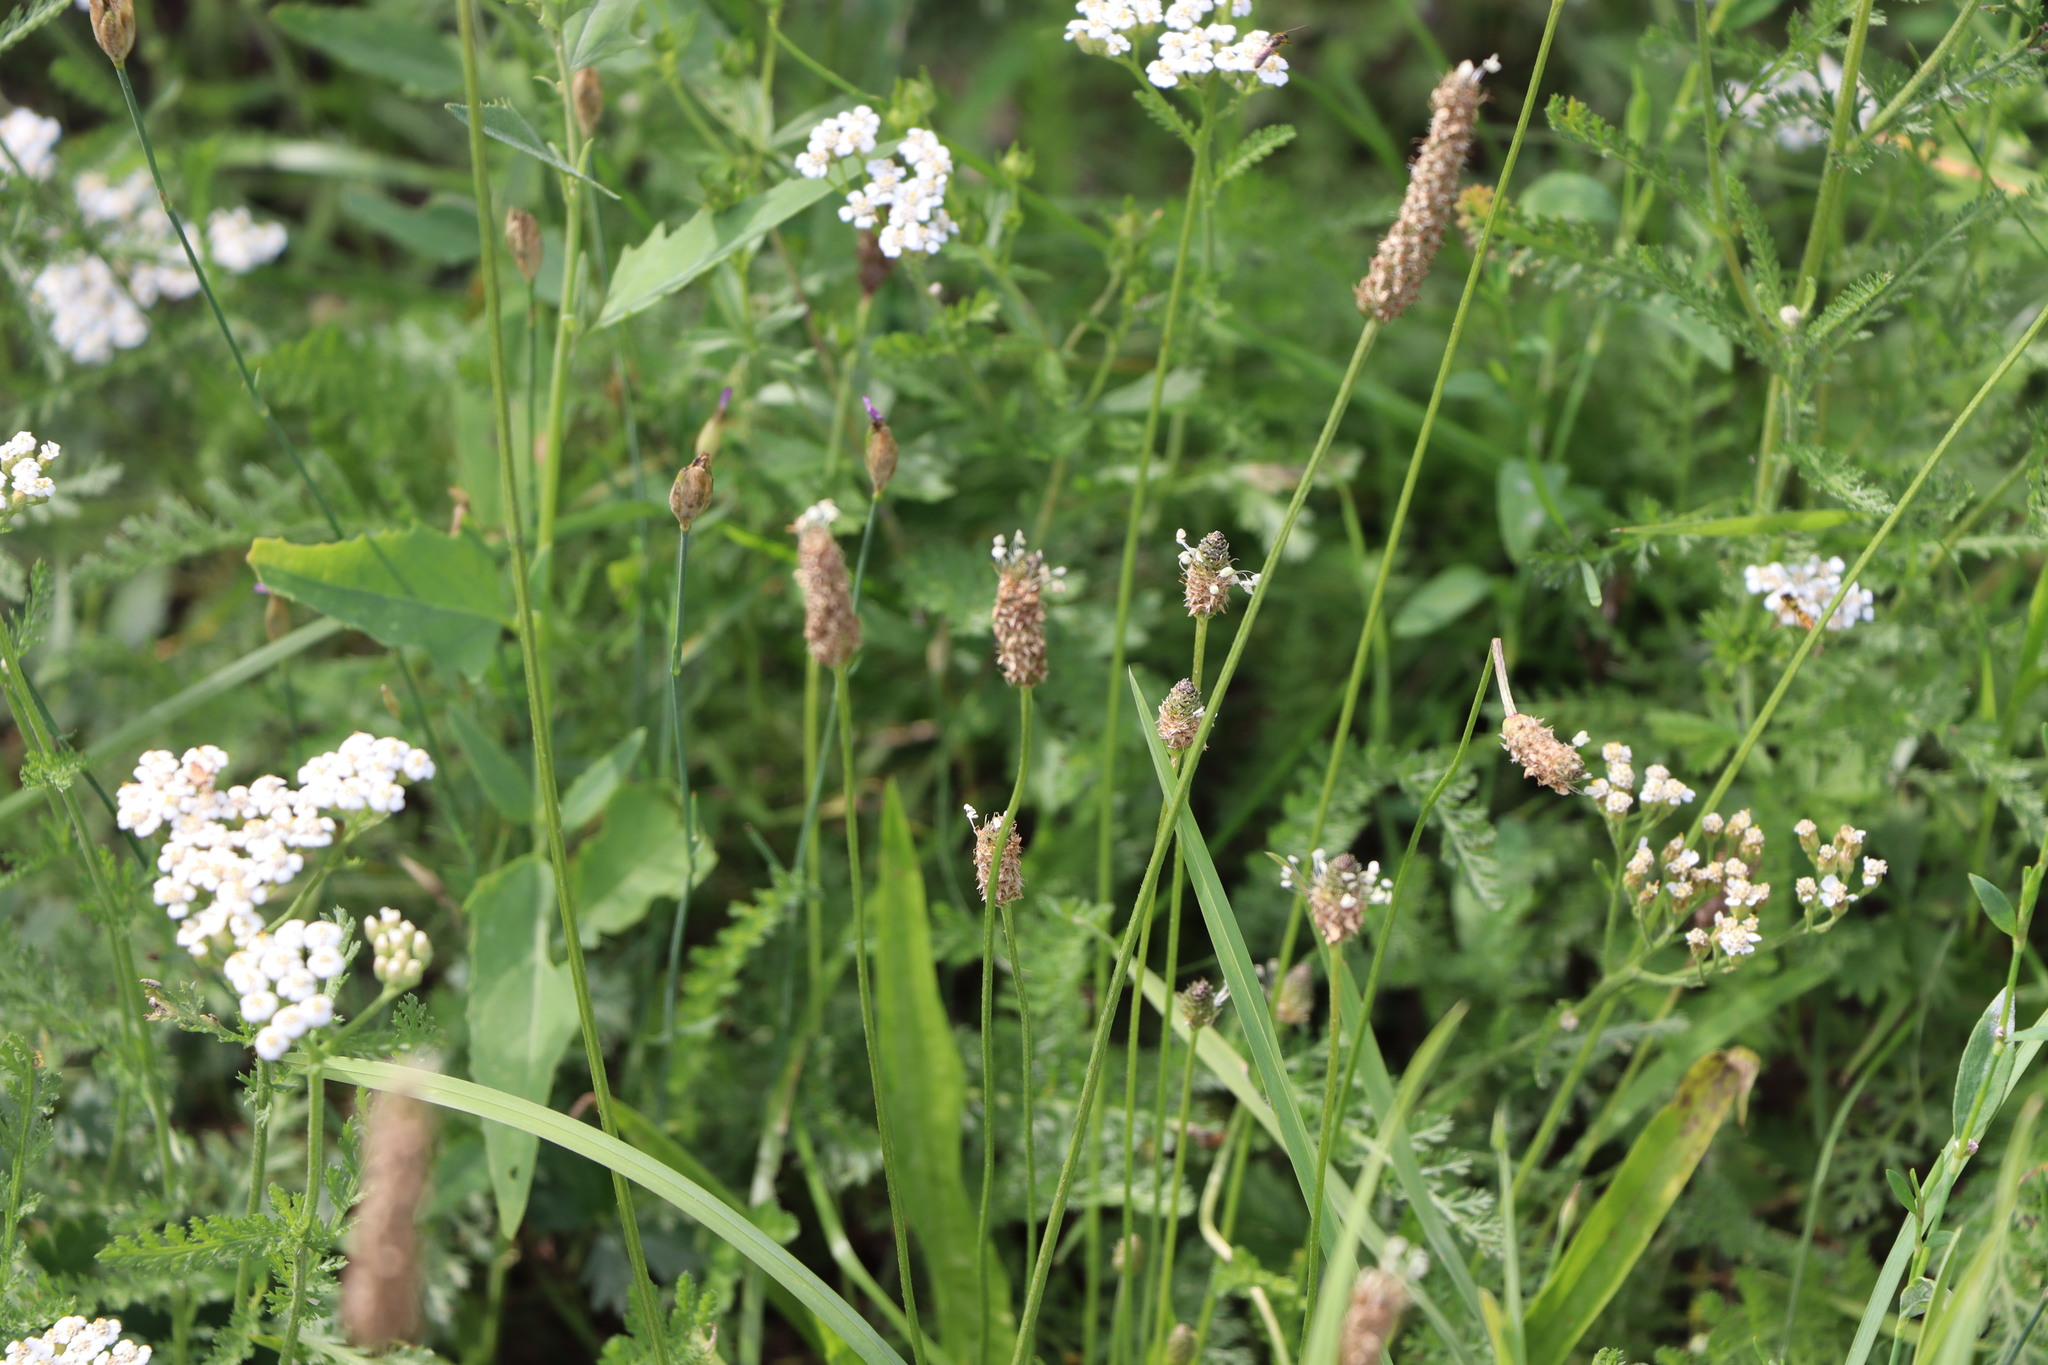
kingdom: Plantae
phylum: Tracheophyta
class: Magnoliopsida
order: Lamiales
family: Plantaginaceae
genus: Plantago
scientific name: Plantago lanceolata
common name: Ribwort plantain
